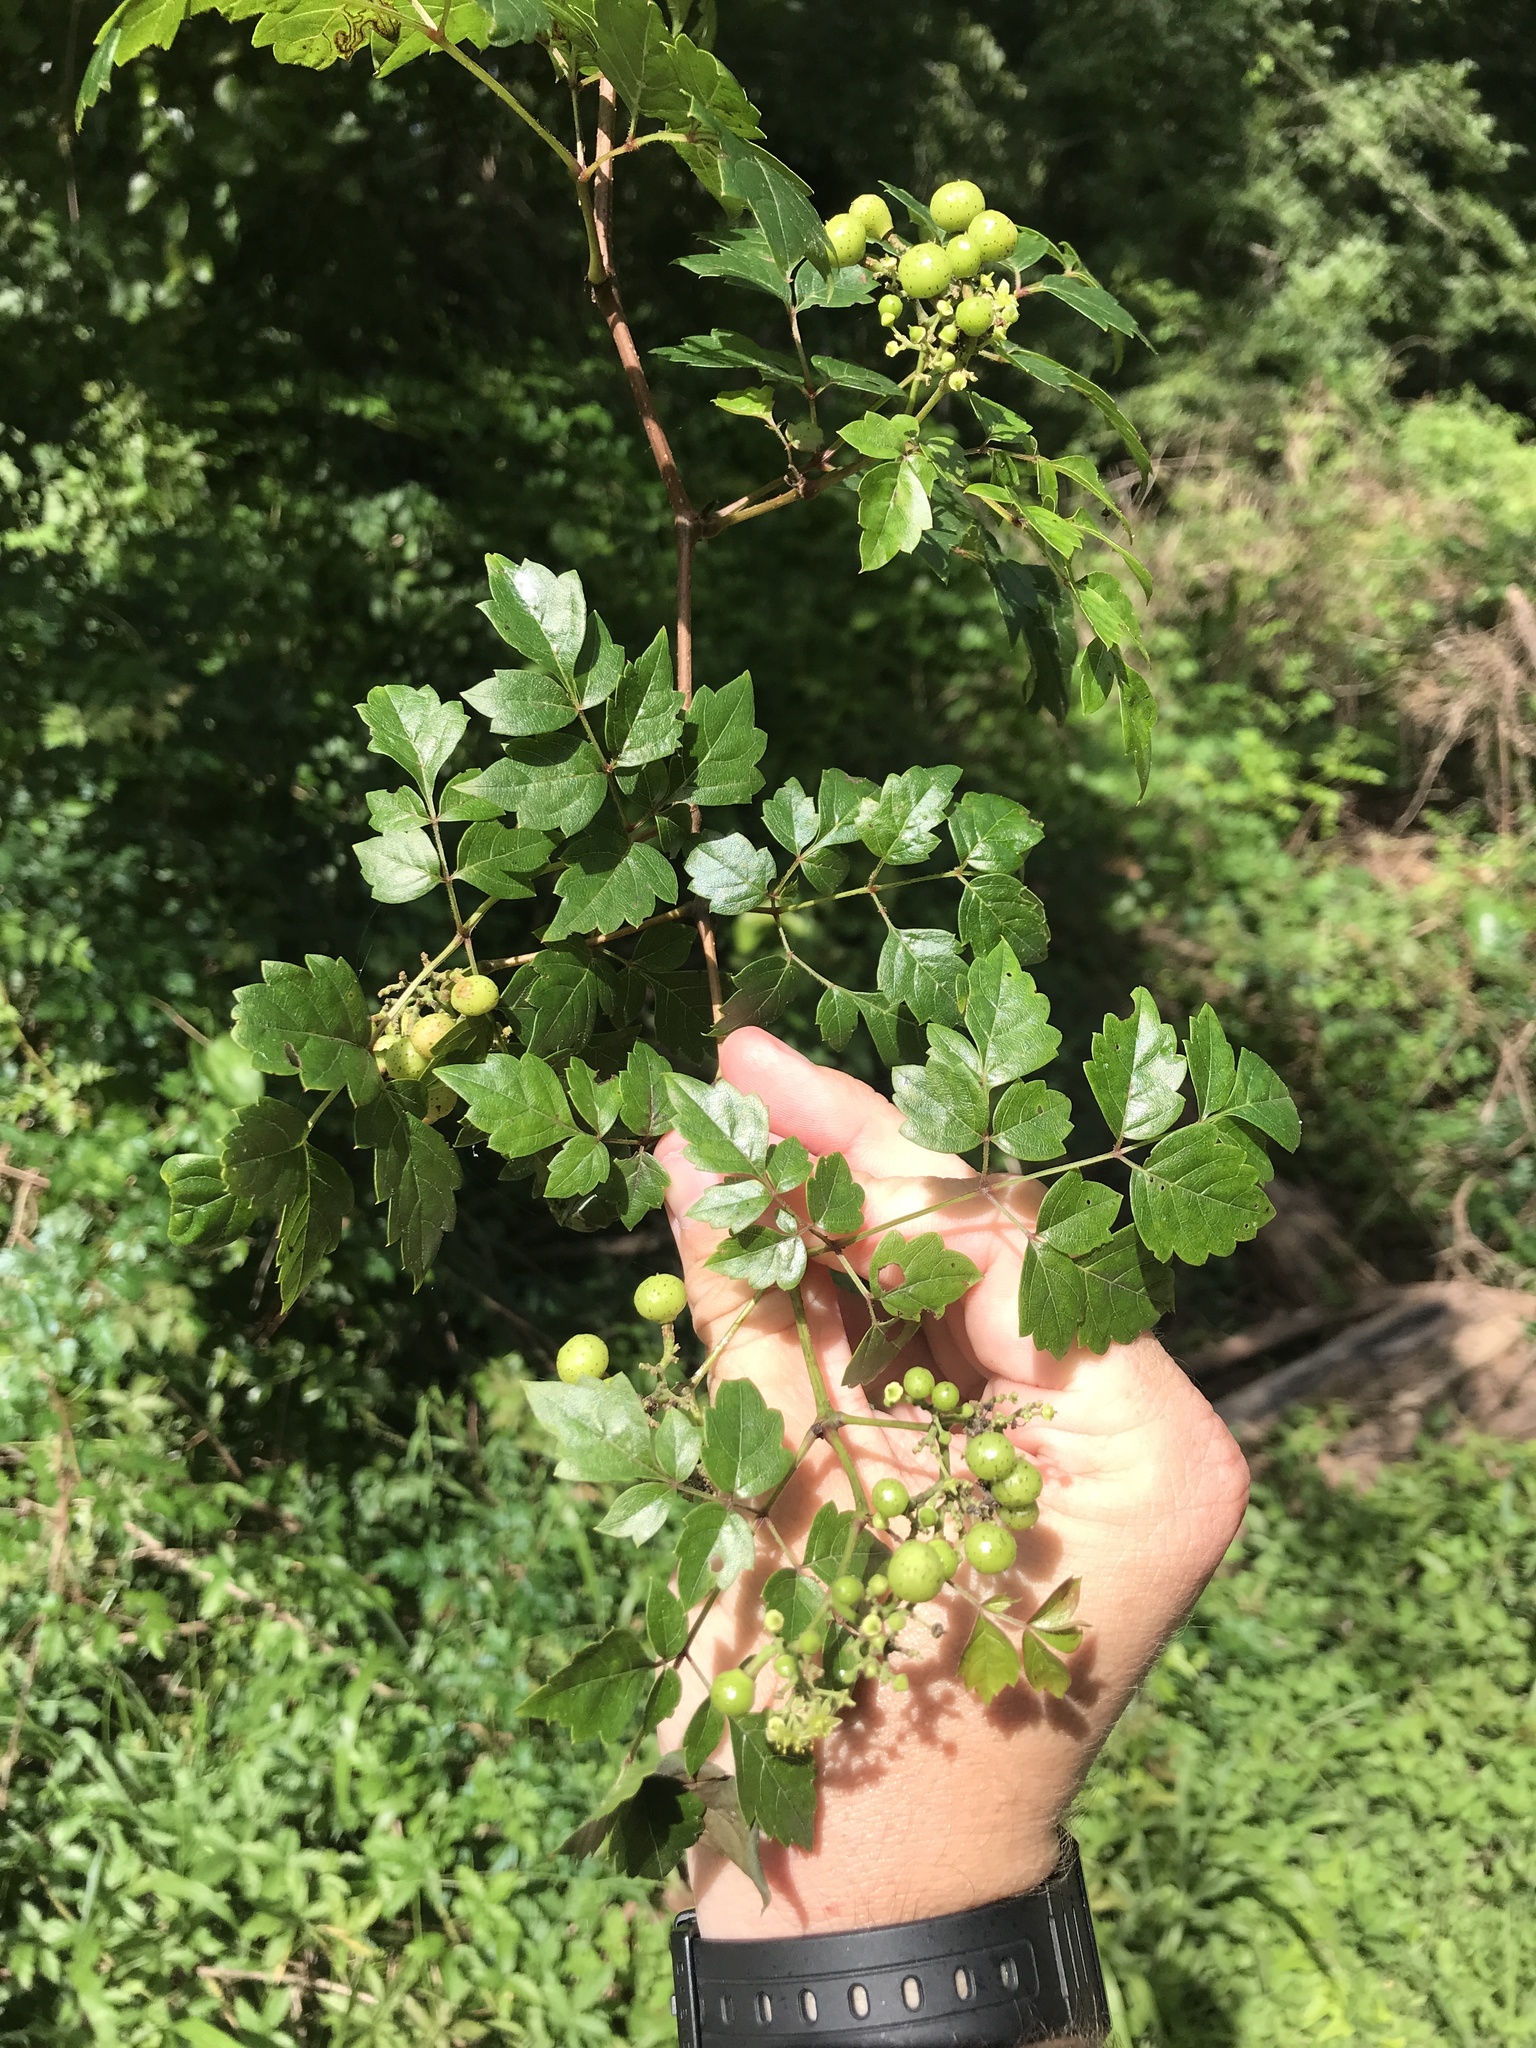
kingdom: Plantae
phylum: Tracheophyta
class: Magnoliopsida
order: Vitales
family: Vitaceae
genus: Nekemias
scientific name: Nekemias arborea
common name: Peppervine
